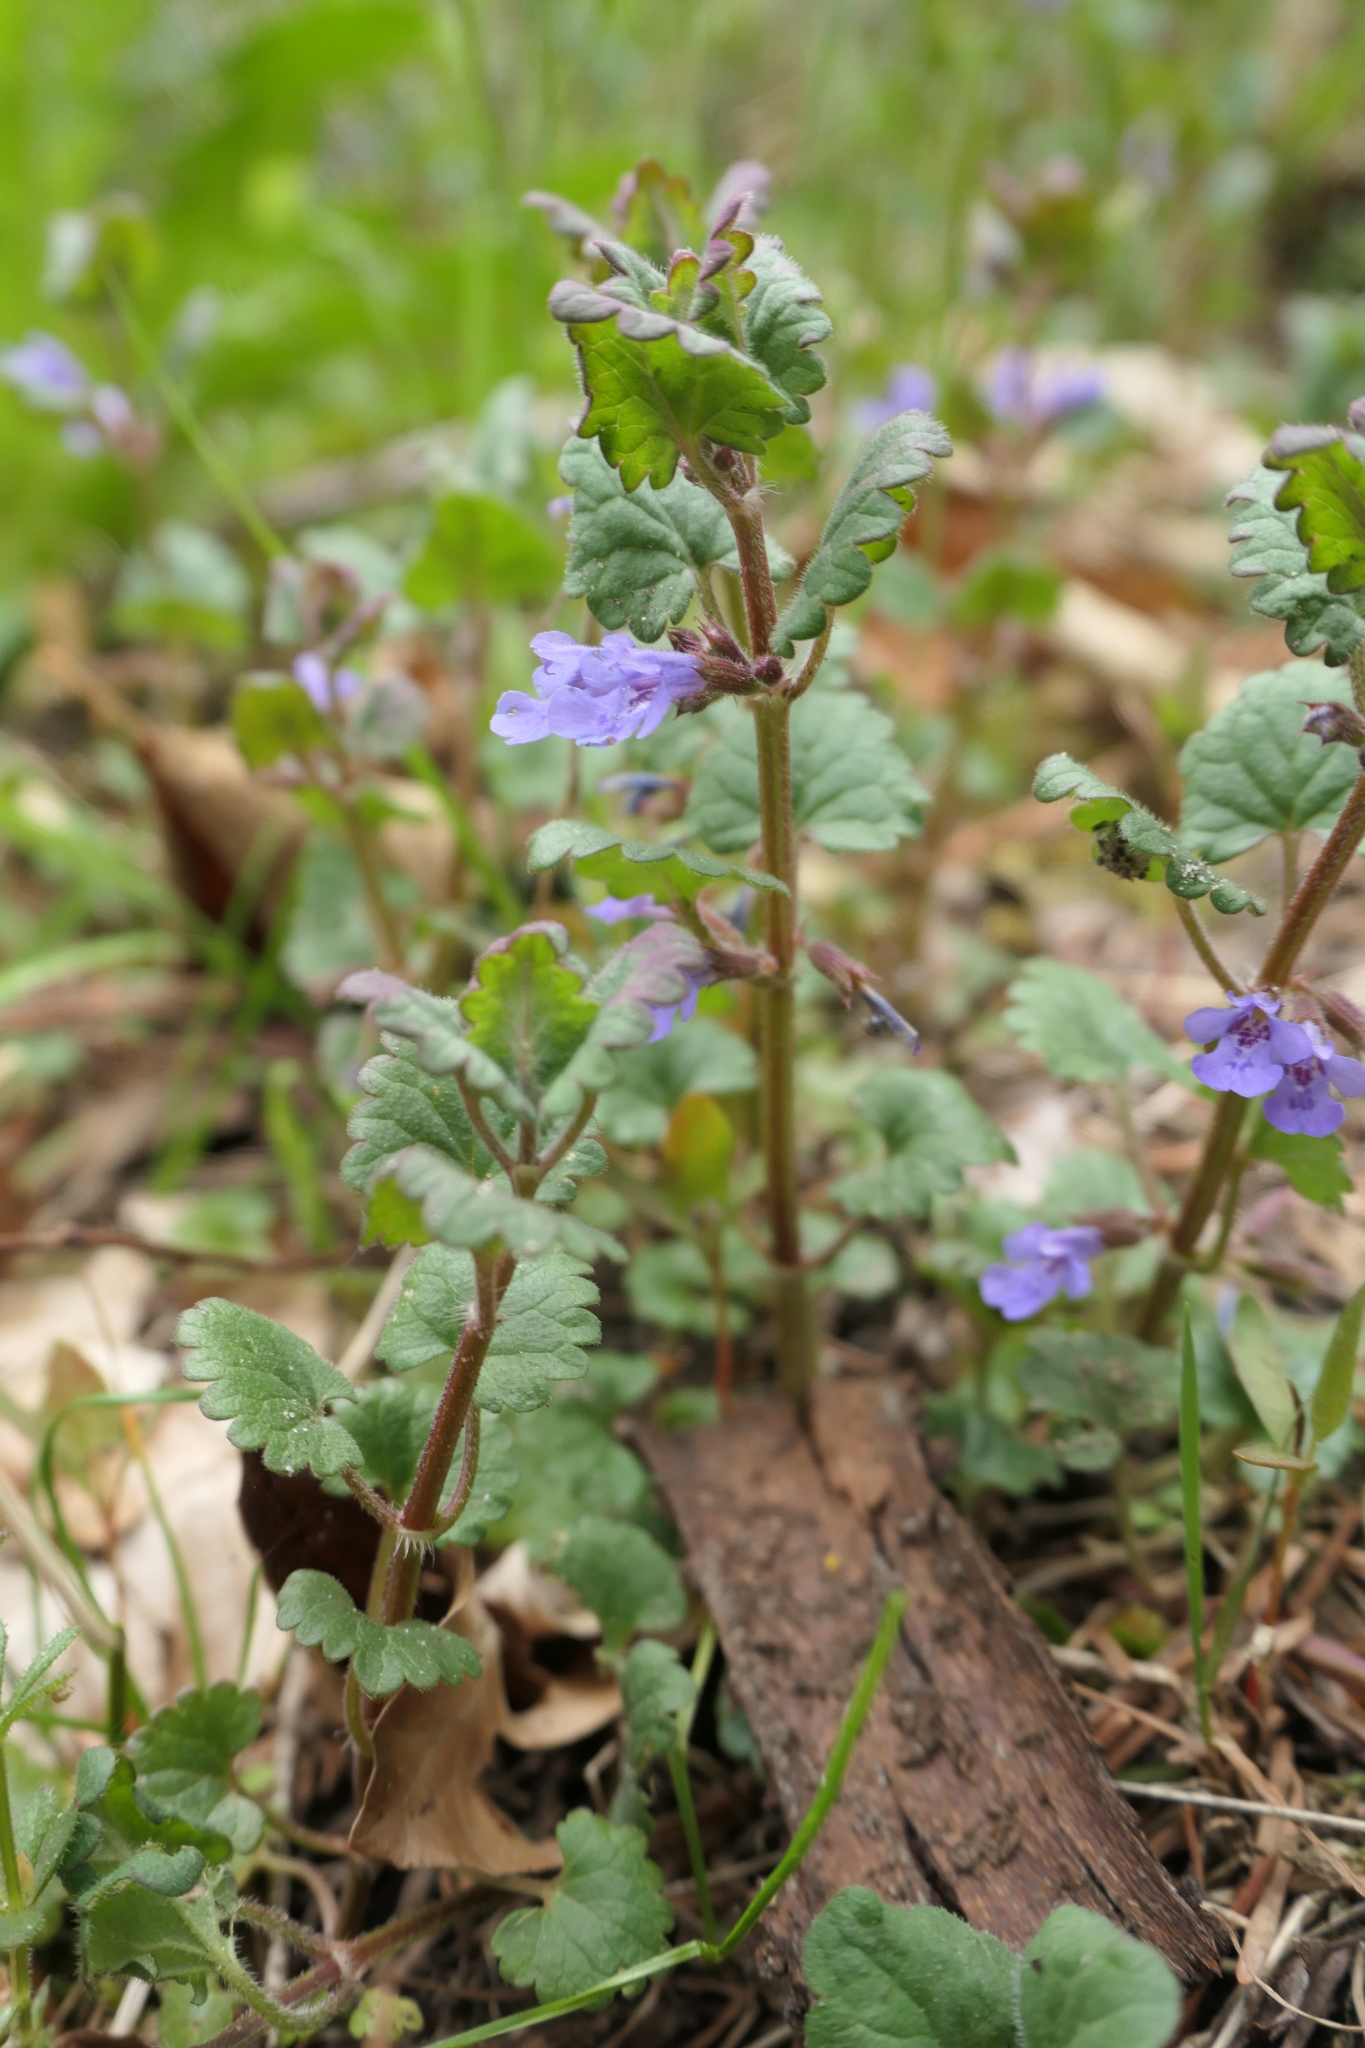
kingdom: Plantae
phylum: Tracheophyta
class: Magnoliopsida
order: Lamiales
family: Lamiaceae
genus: Glechoma
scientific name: Glechoma hederacea
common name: Ground ivy
